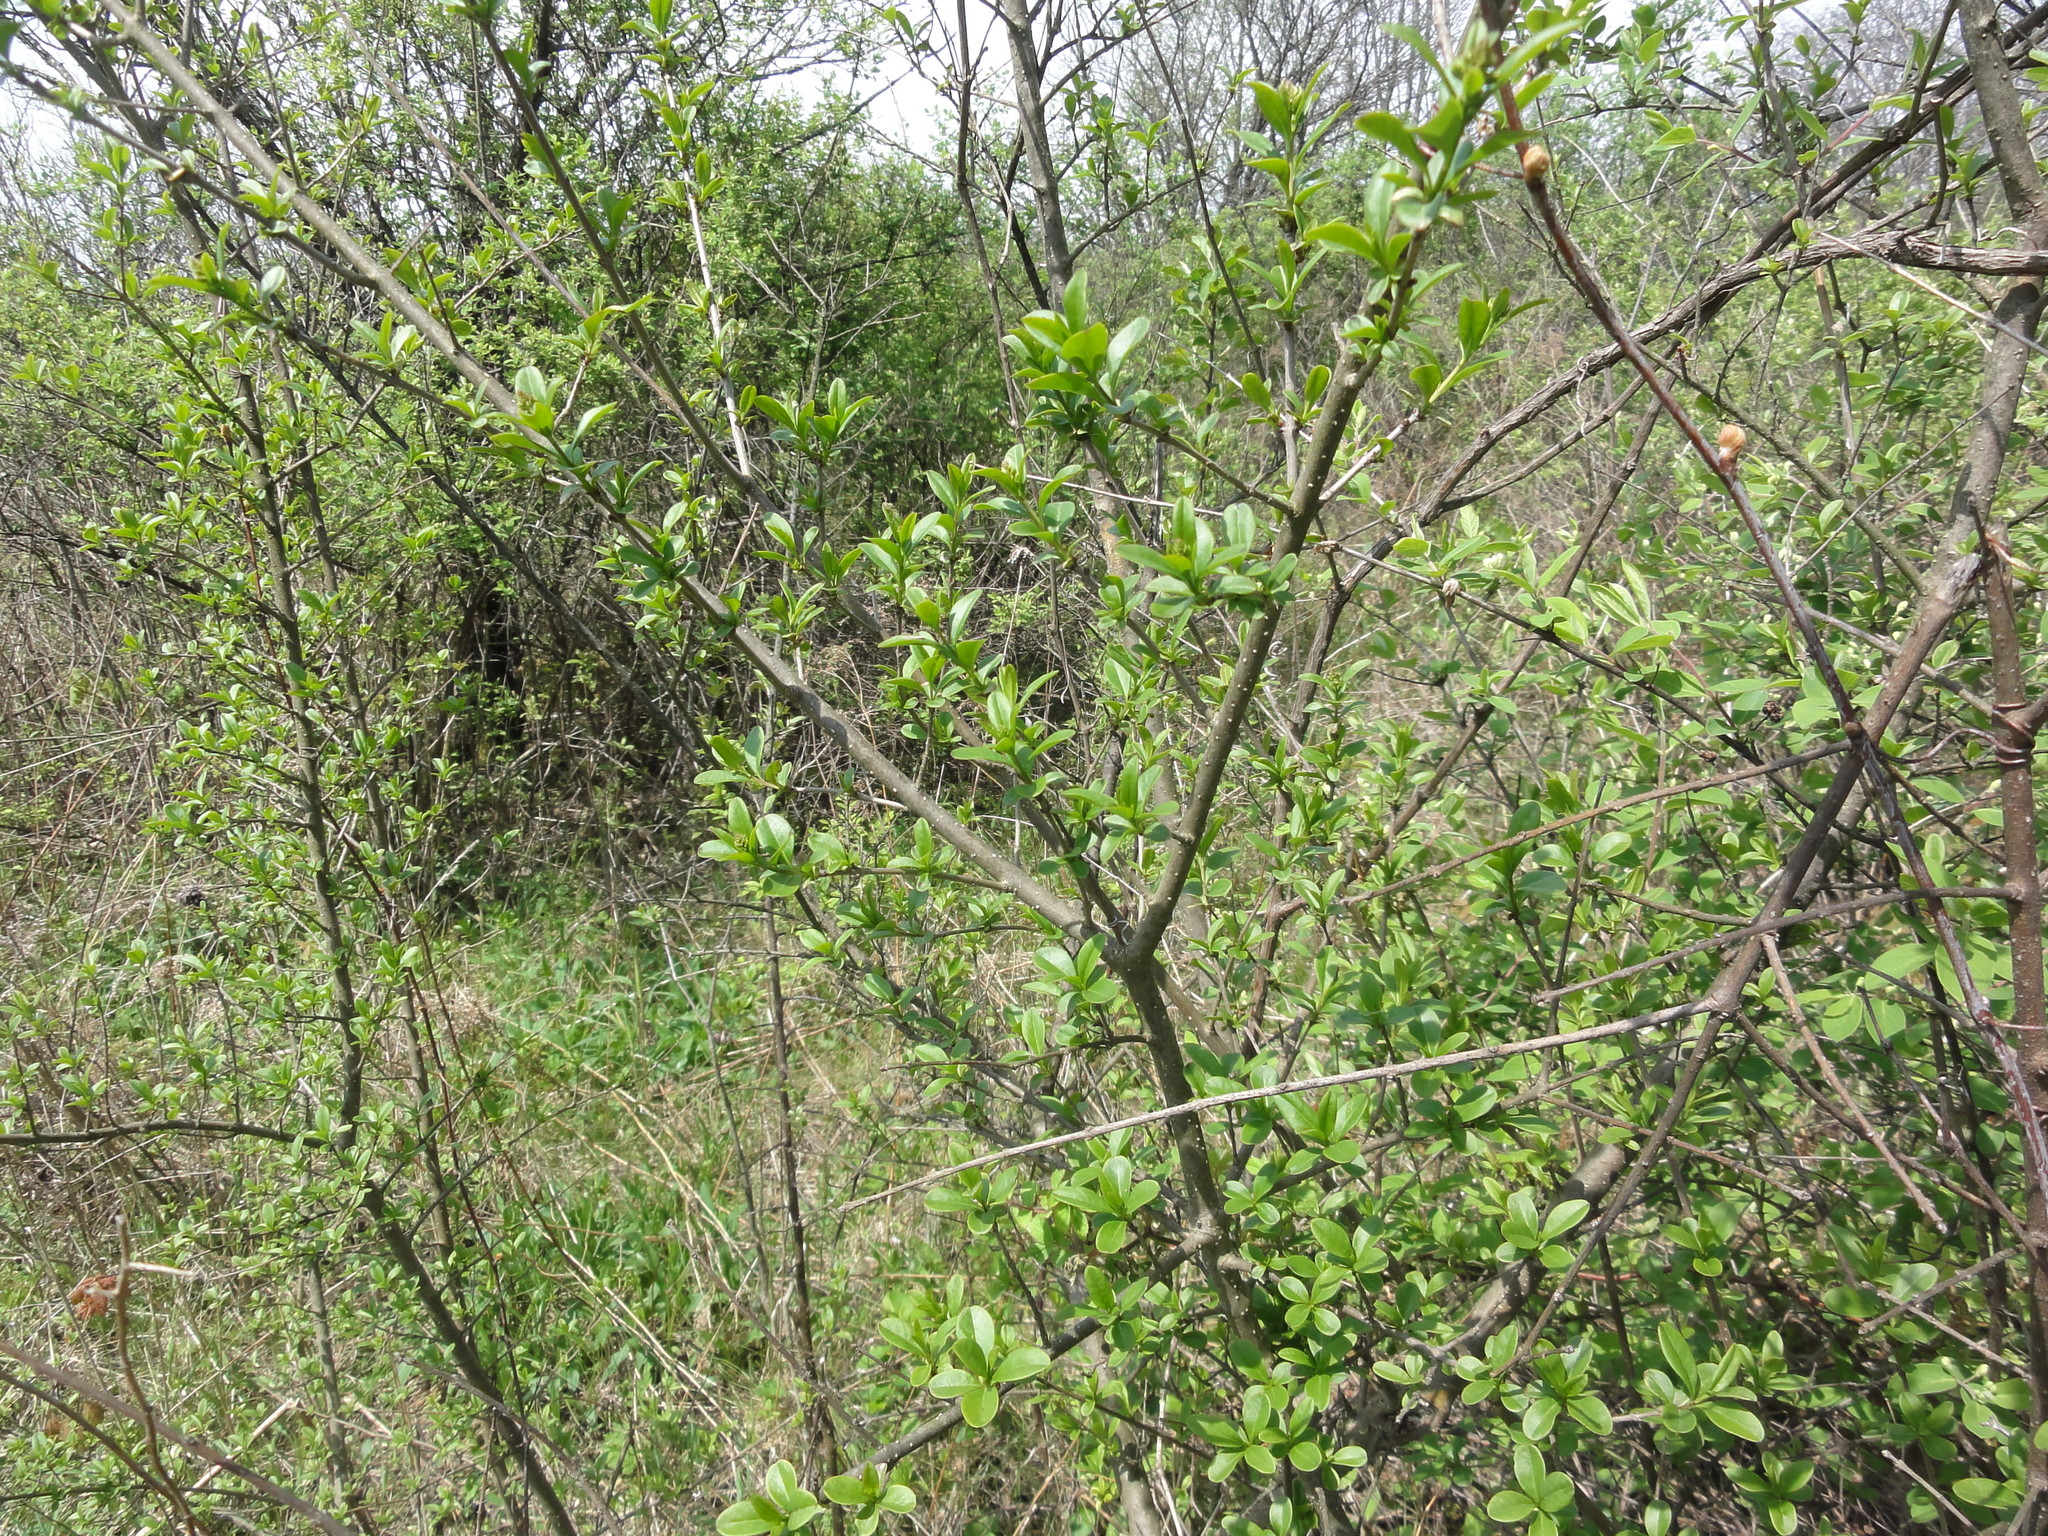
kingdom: Plantae
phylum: Tracheophyta
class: Magnoliopsida
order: Lamiales
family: Oleaceae
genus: Ligustrum
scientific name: Ligustrum obtusifolium
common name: Border privet
